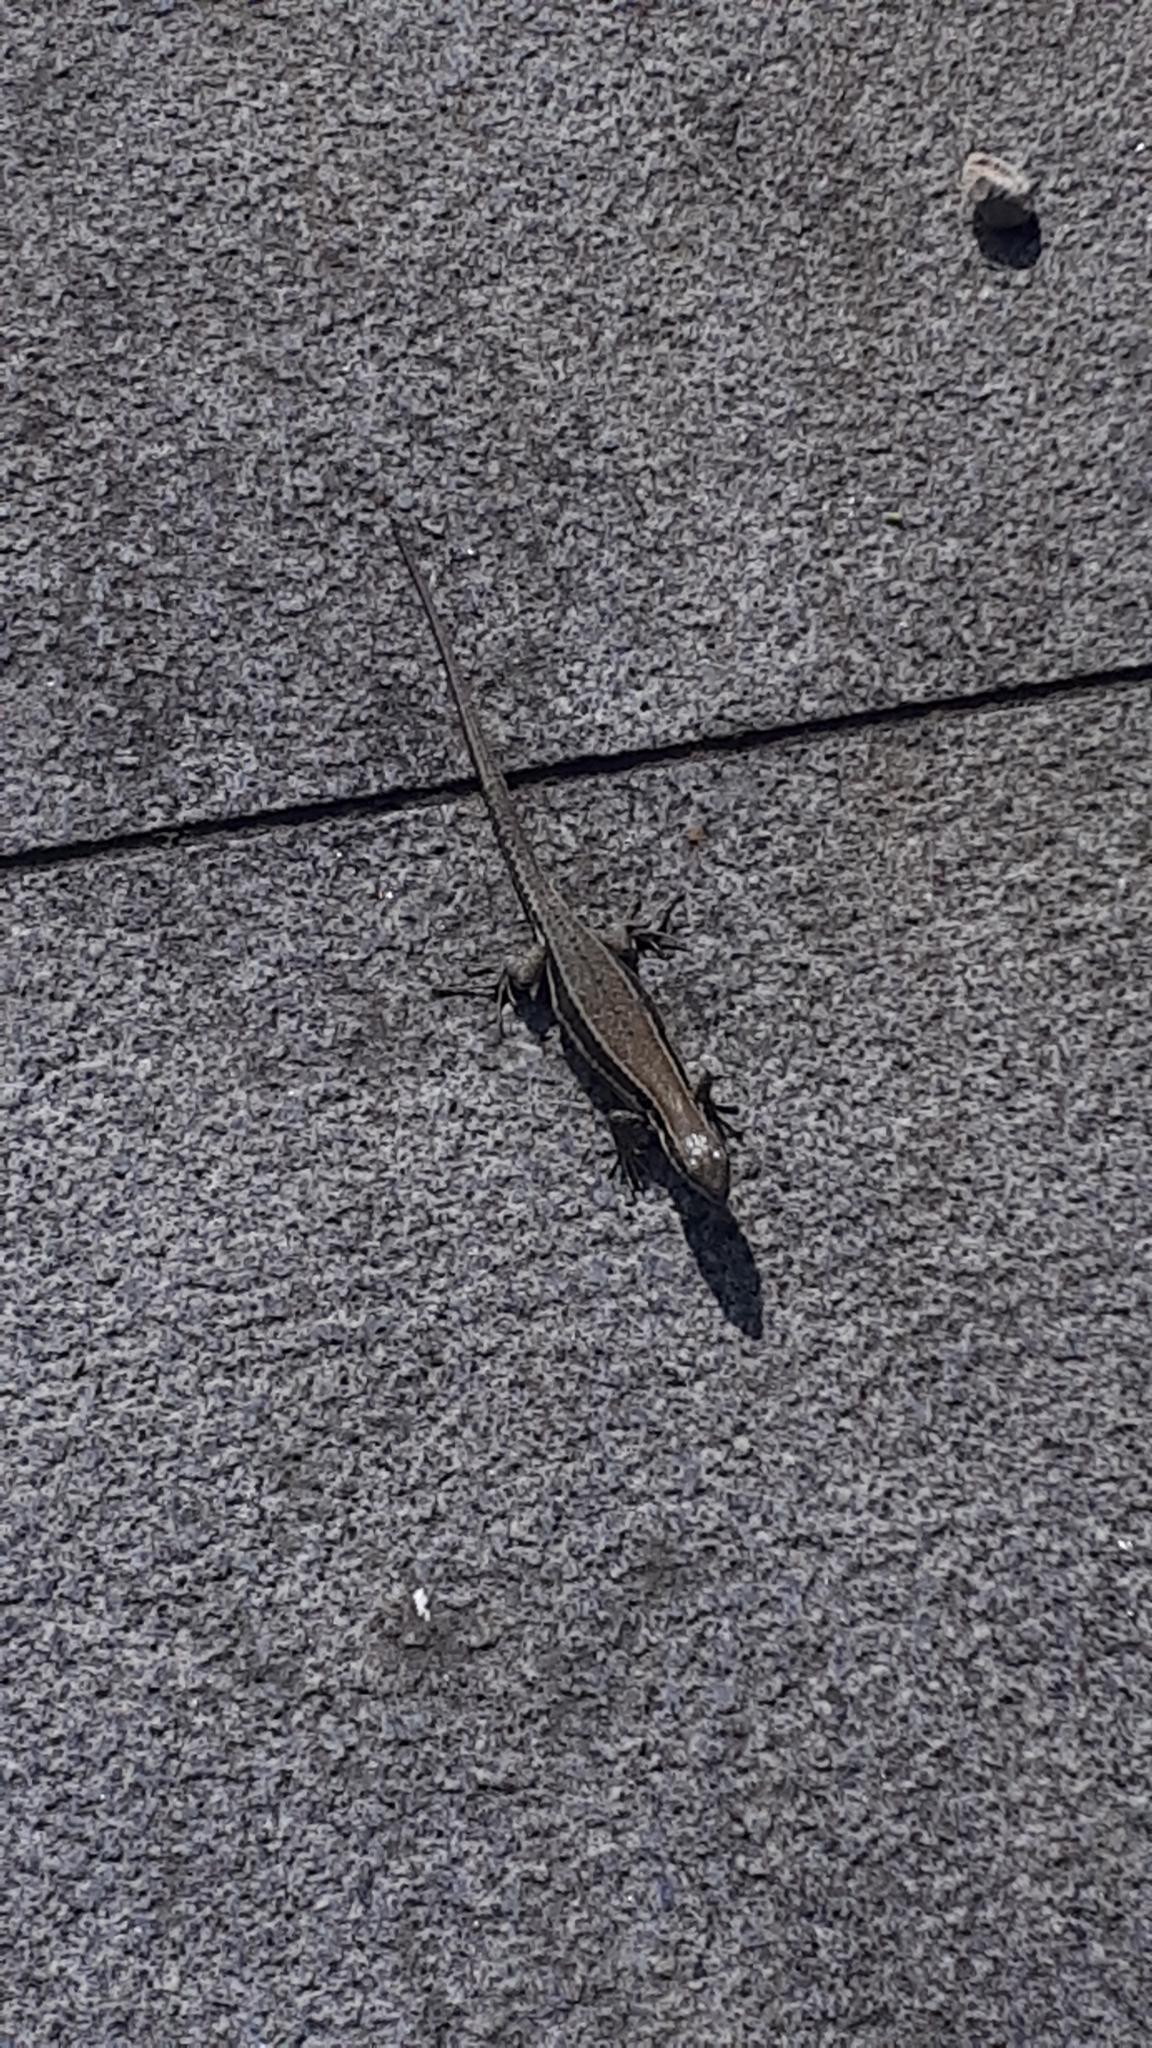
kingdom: Animalia
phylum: Chordata
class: Squamata
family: Lacertidae
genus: Podarcis
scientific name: Podarcis muralis
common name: Common wall lizard
